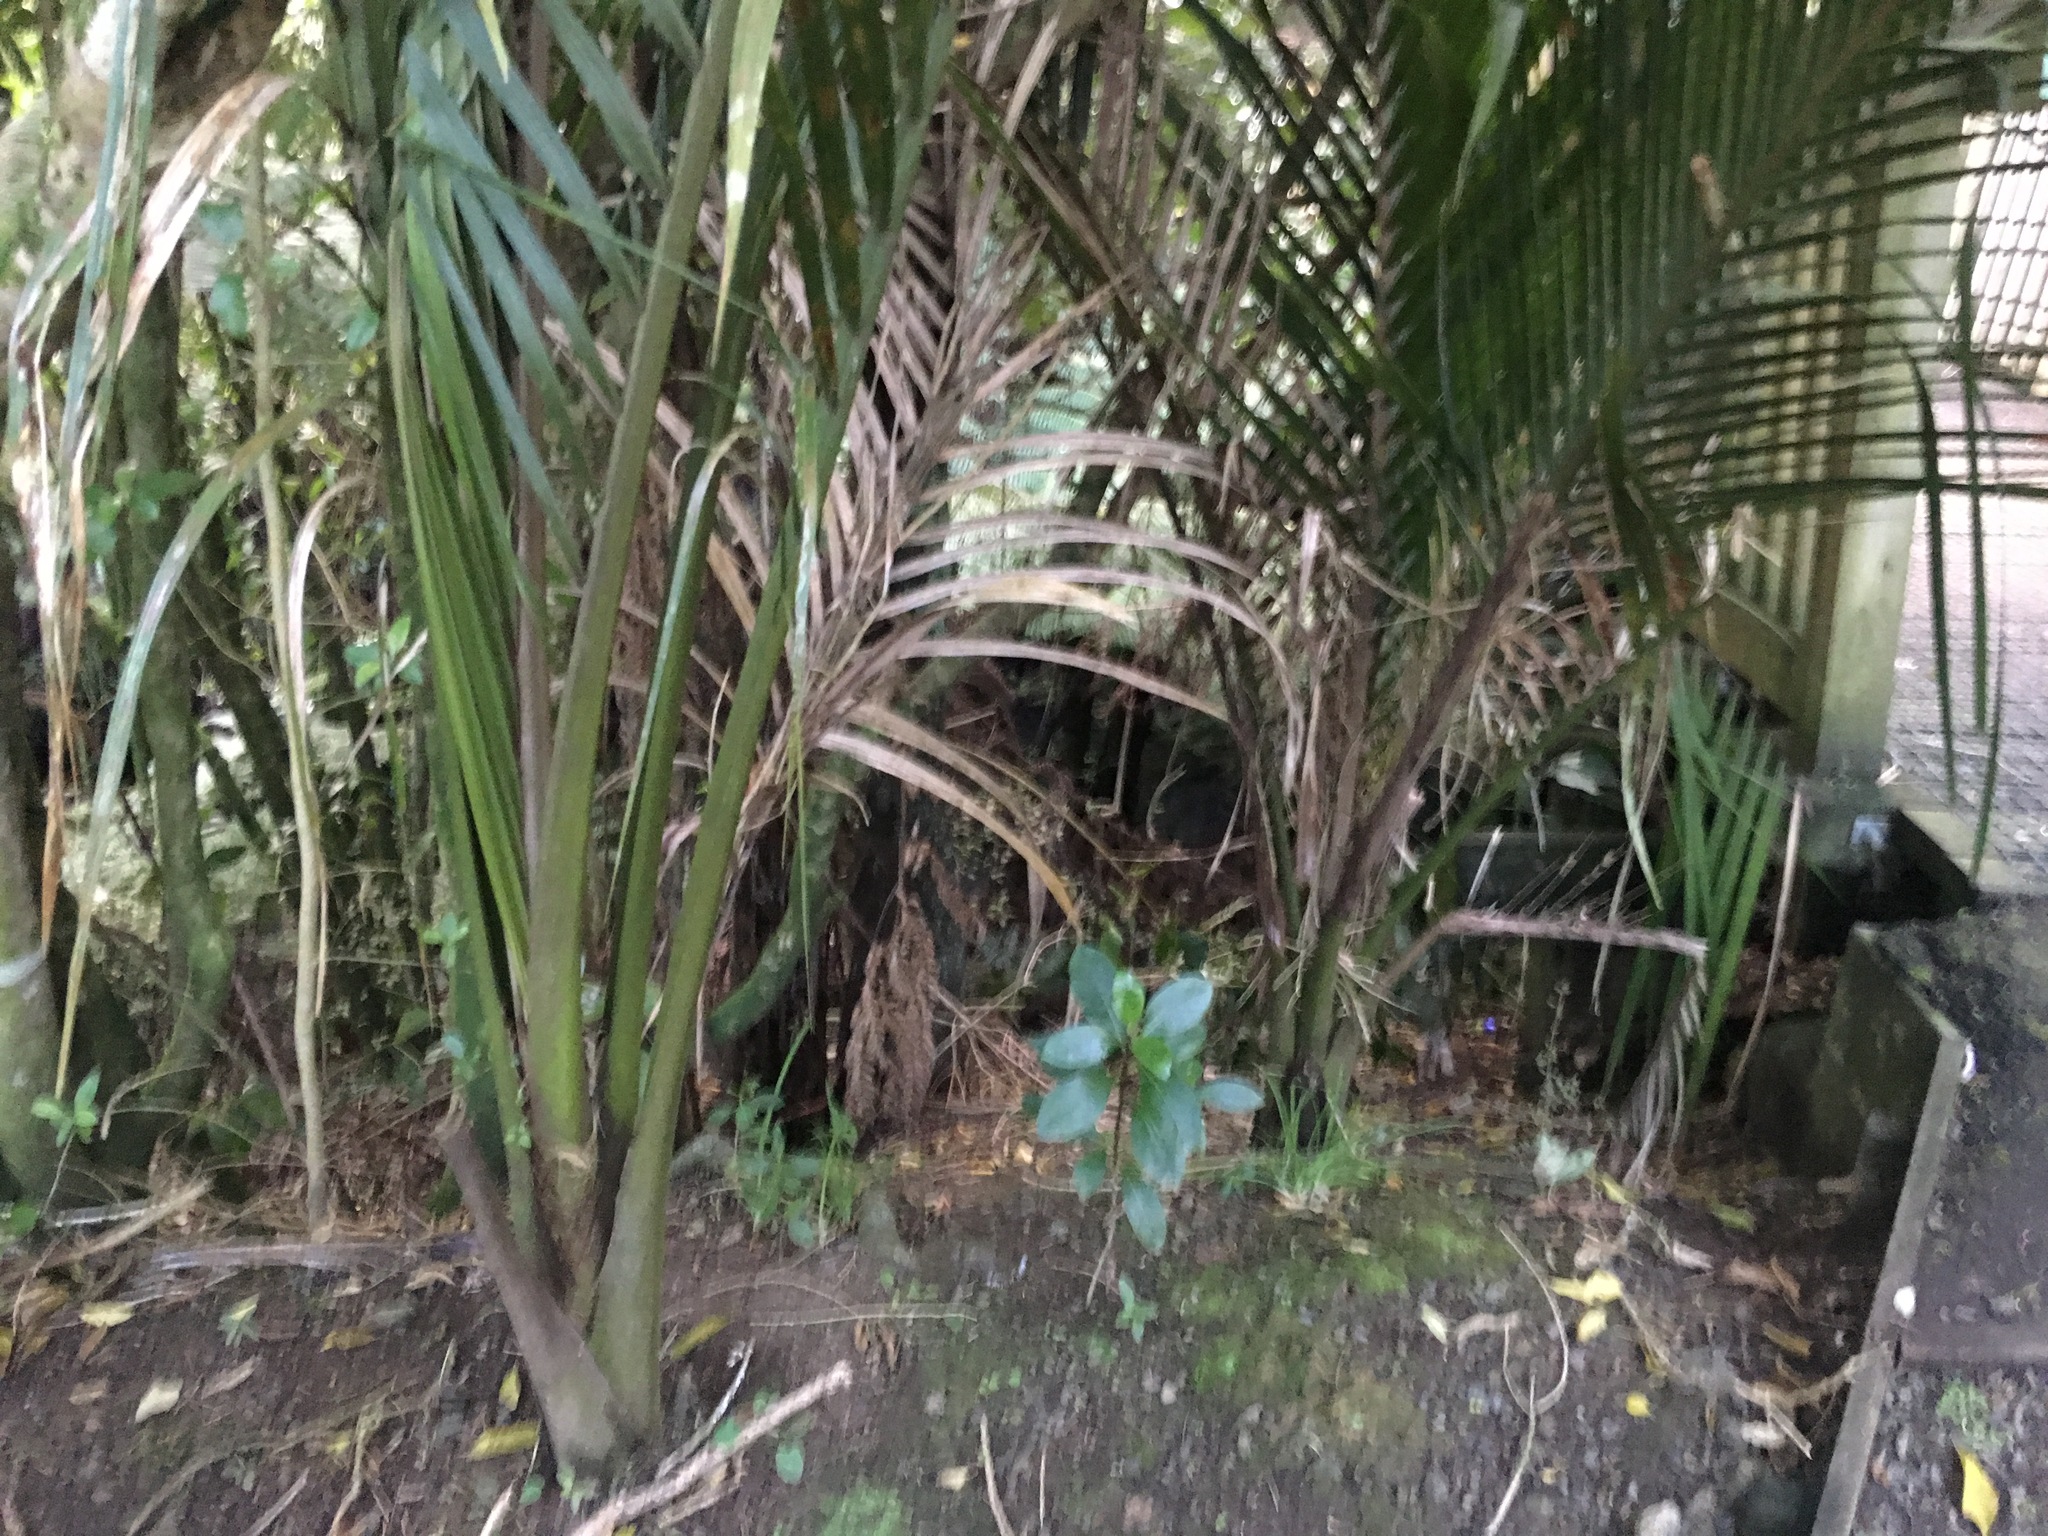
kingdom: Plantae
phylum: Tracheophyta
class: Liliopsida
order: Arecales
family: Arecaceae
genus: Rhopalostylis
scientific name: Rhopalostylis sapida
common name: Feather-duster palm
